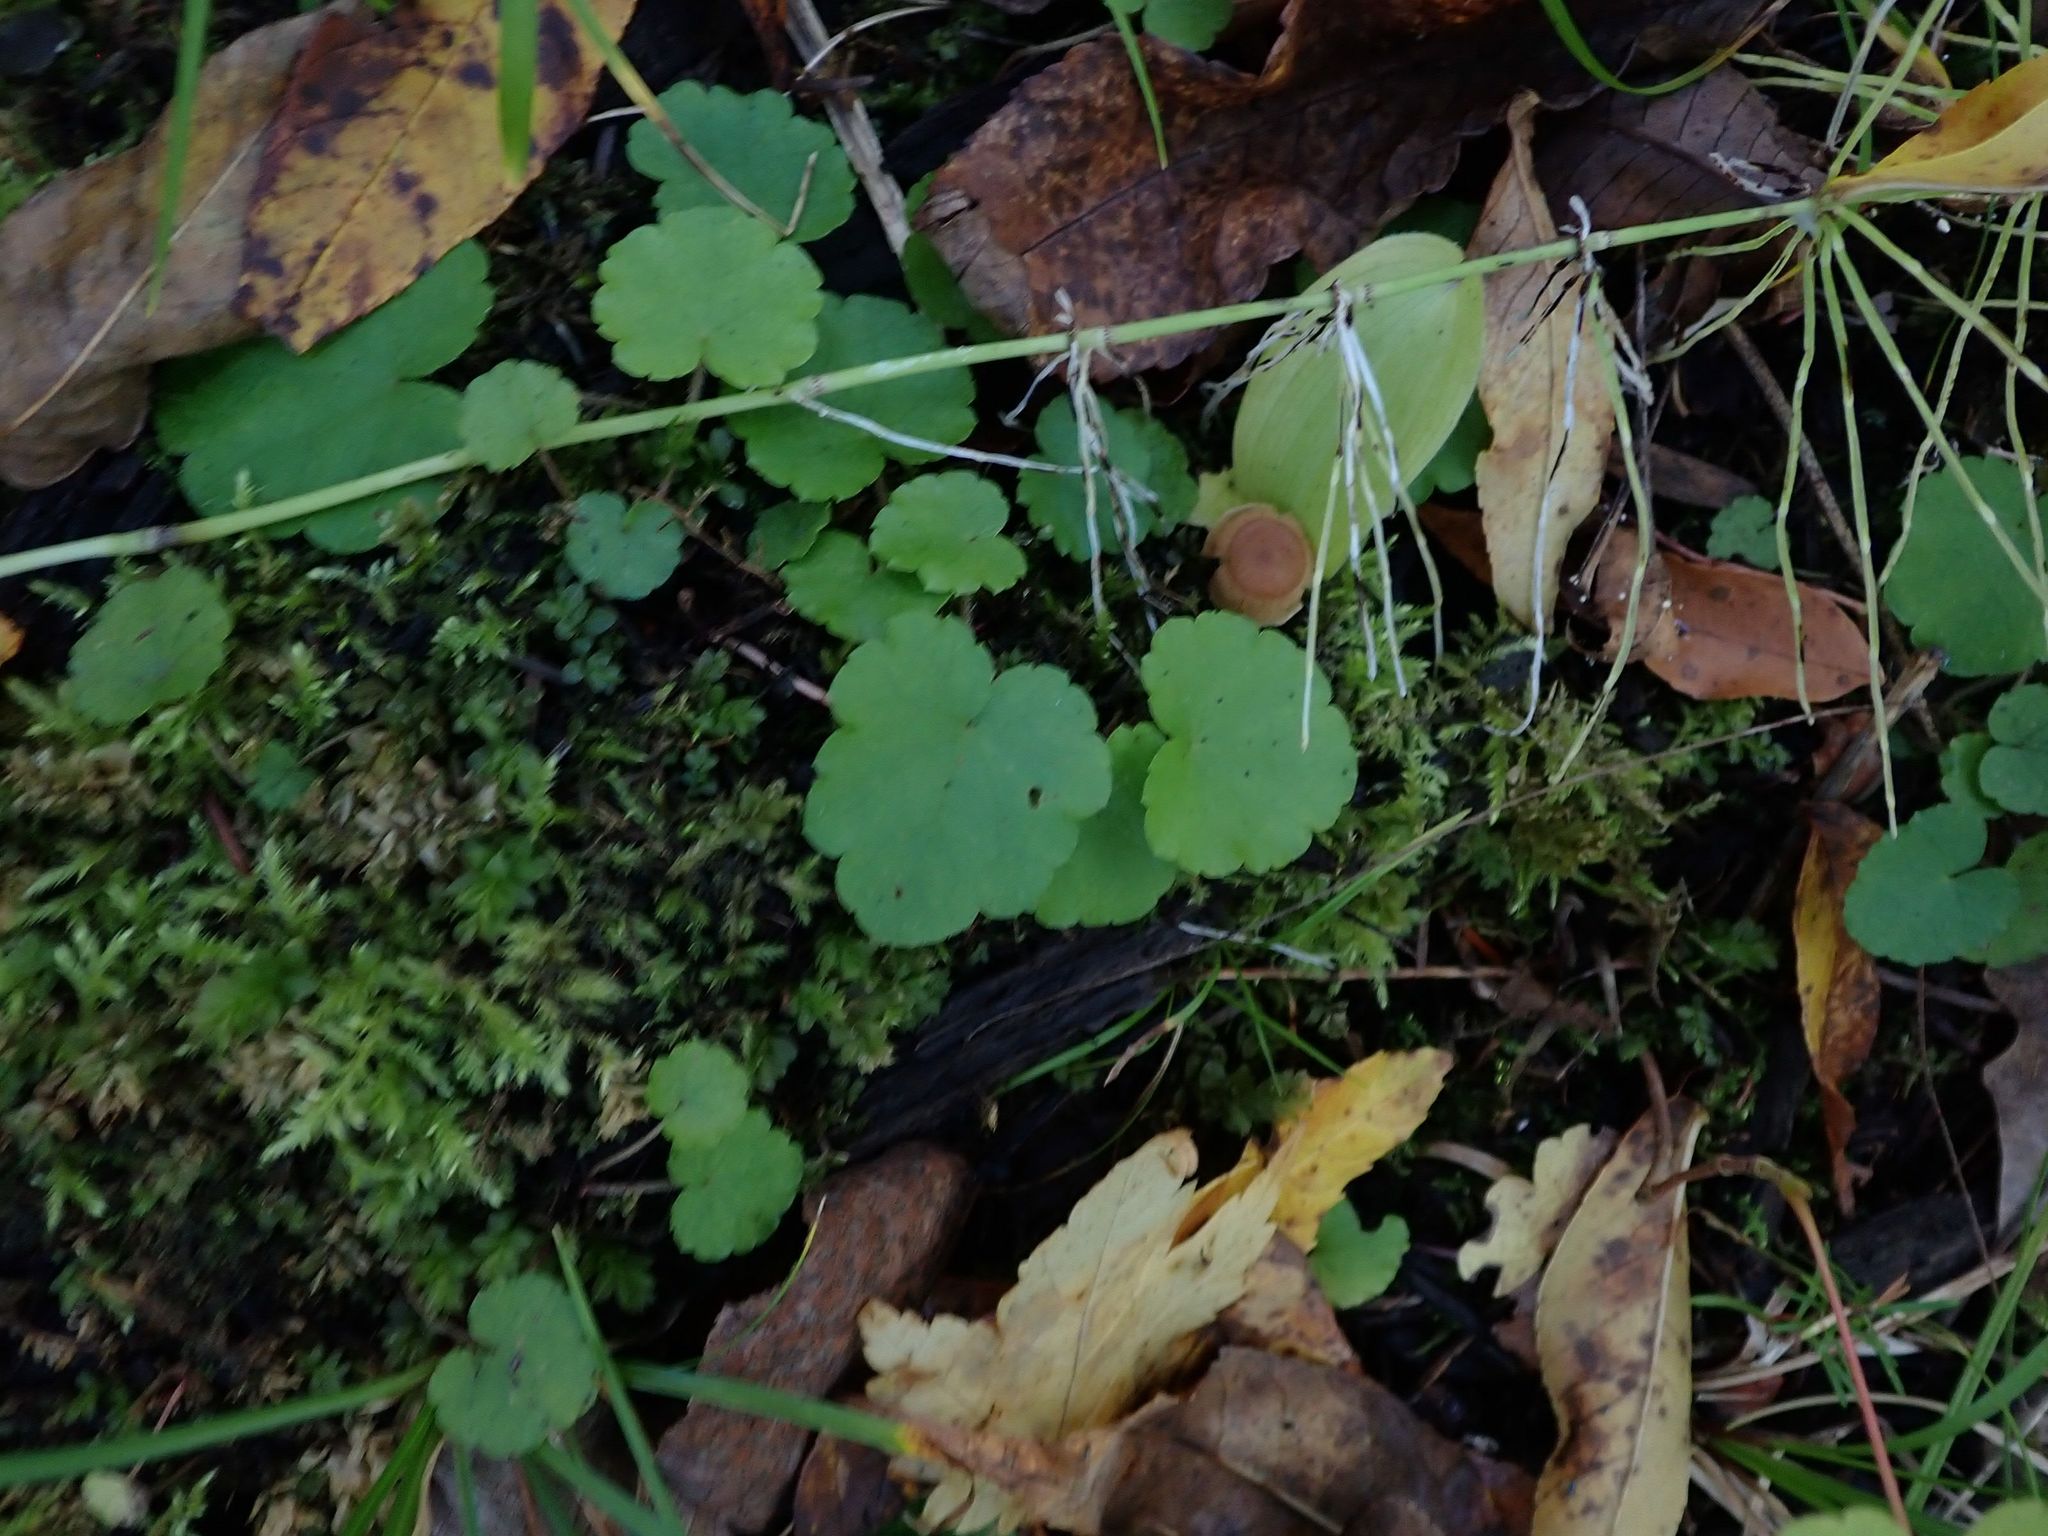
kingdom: Plantae
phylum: Tracheophyta
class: Magnoliopsida
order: Saxifragales
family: Saxifragaceae
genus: Mitella
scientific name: Mitella nuda
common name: Bare-stemmed bishop's-cap
